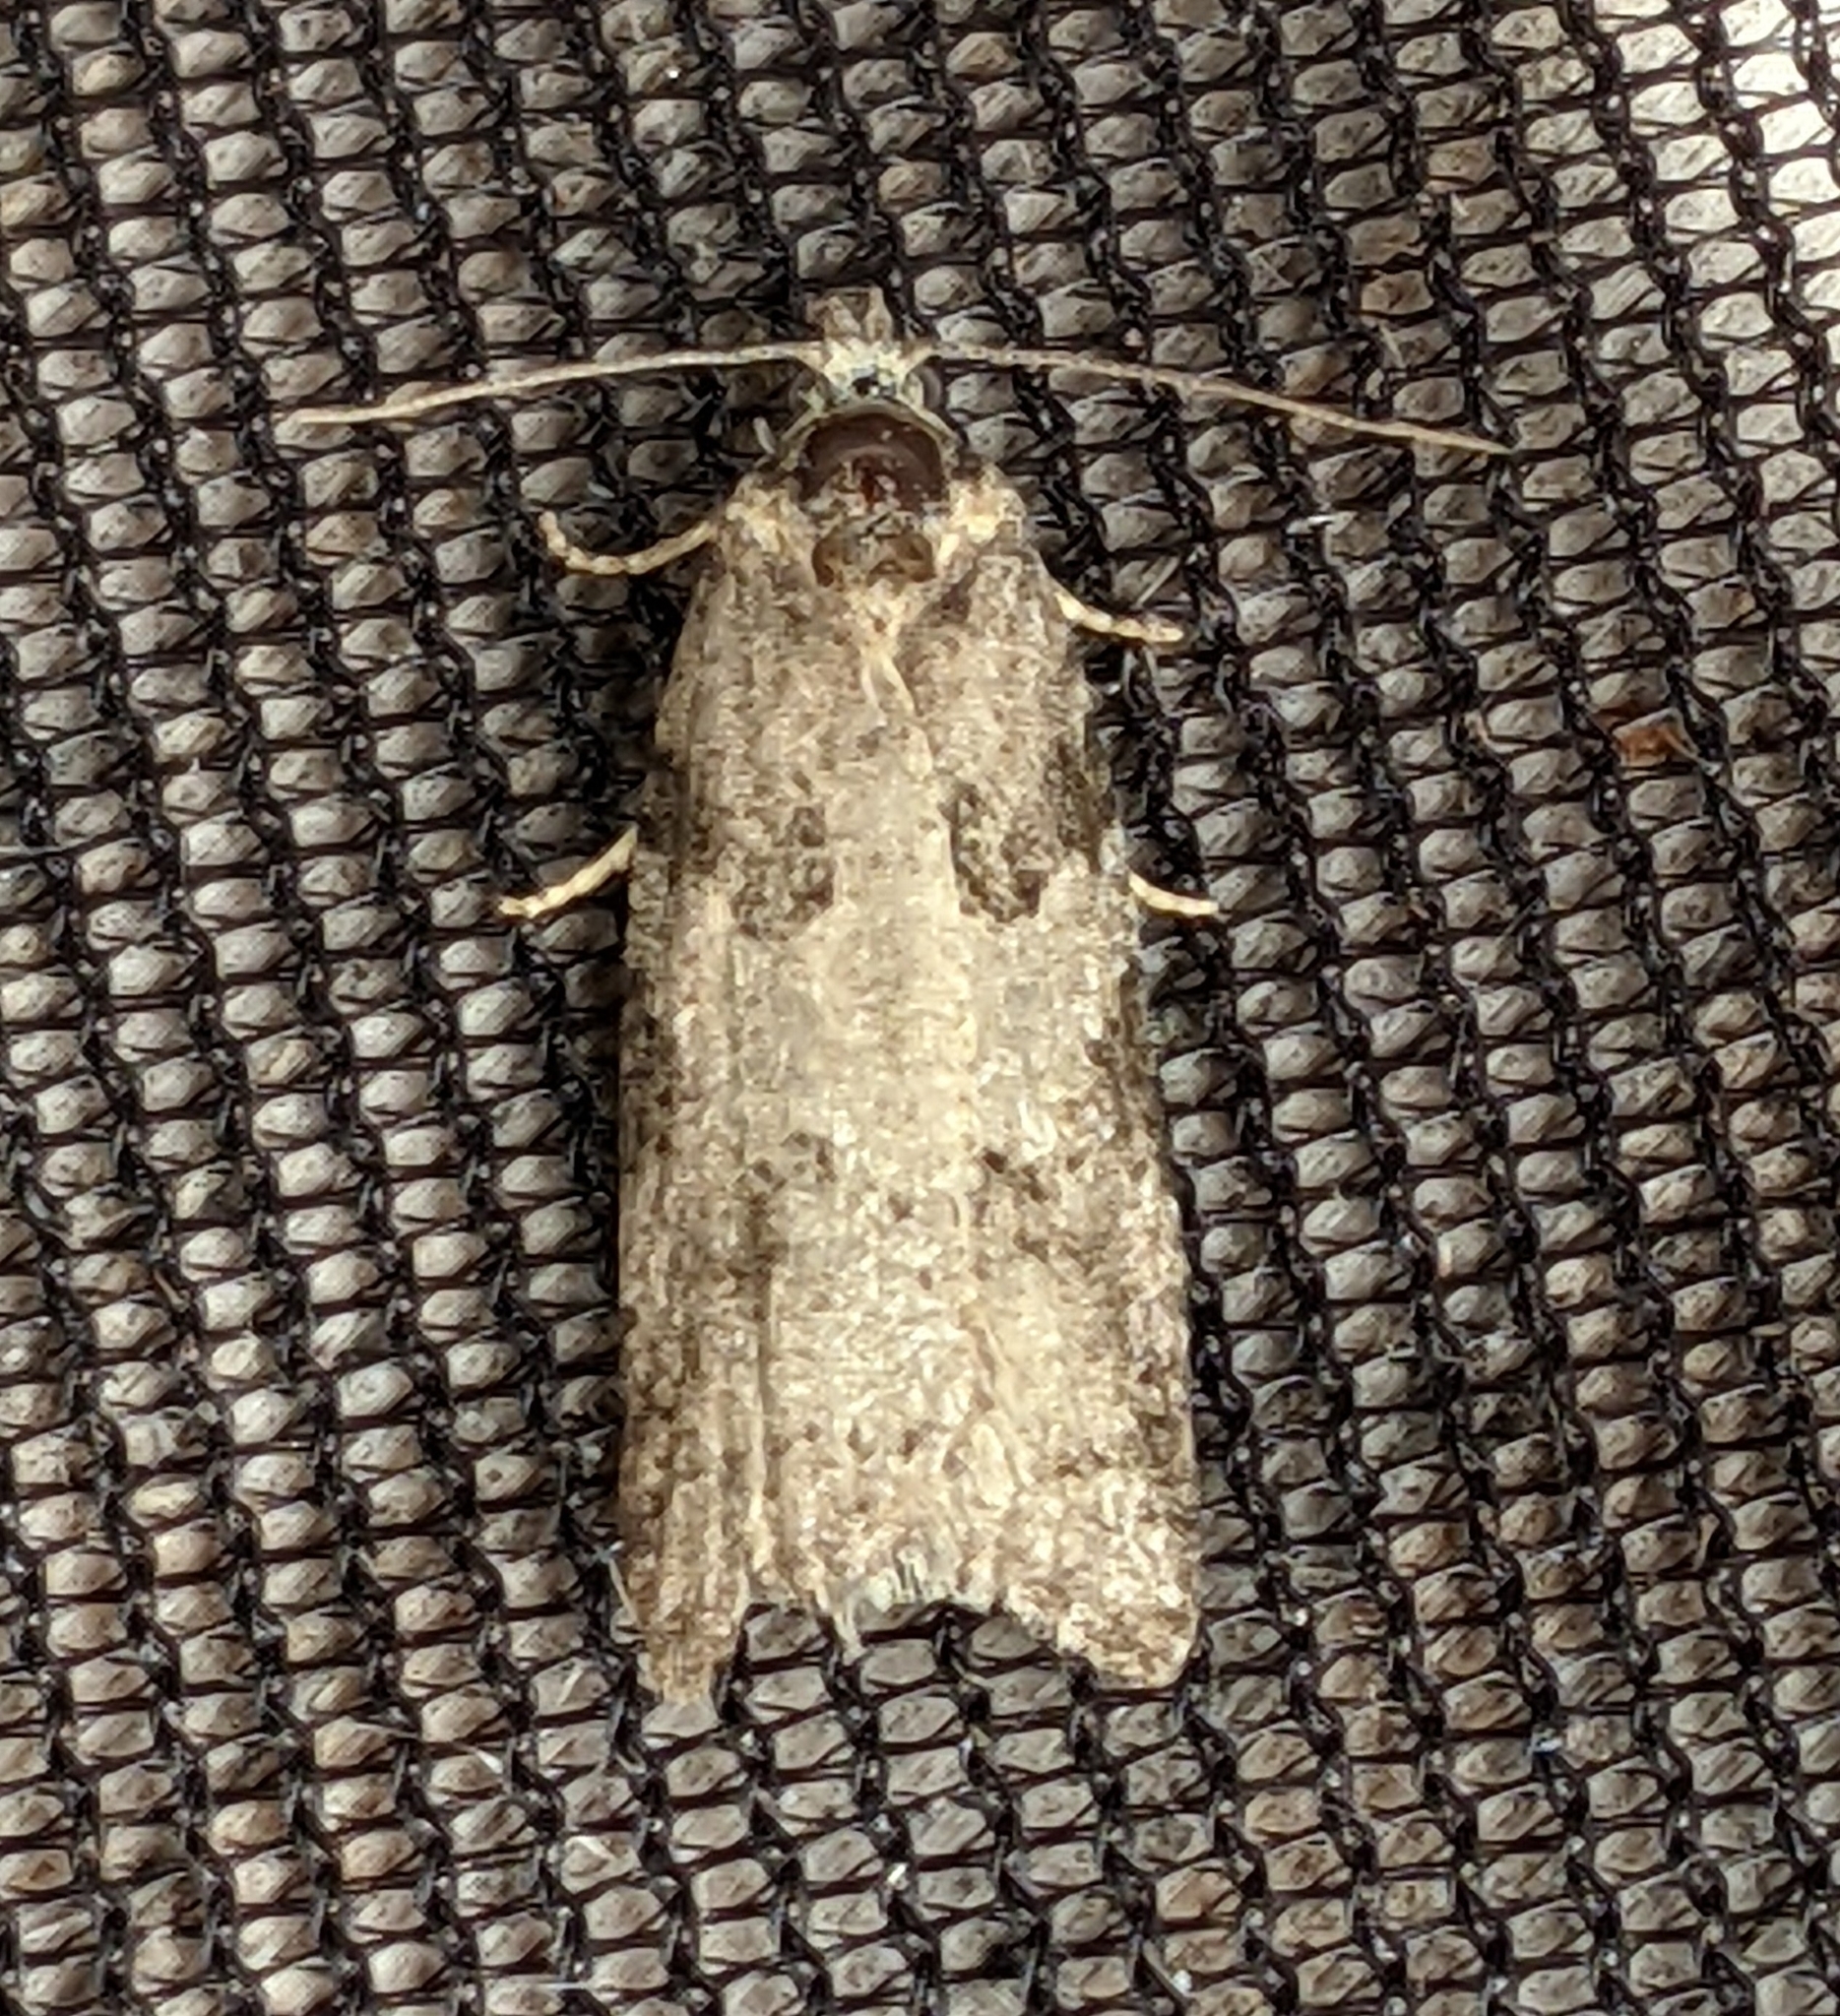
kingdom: Animalia
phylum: Arthropoda
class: Insecta
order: Lepidoptera
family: Tortricidae
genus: Cnephasia
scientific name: Cnephasia stephensiana
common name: Grey tortrix
